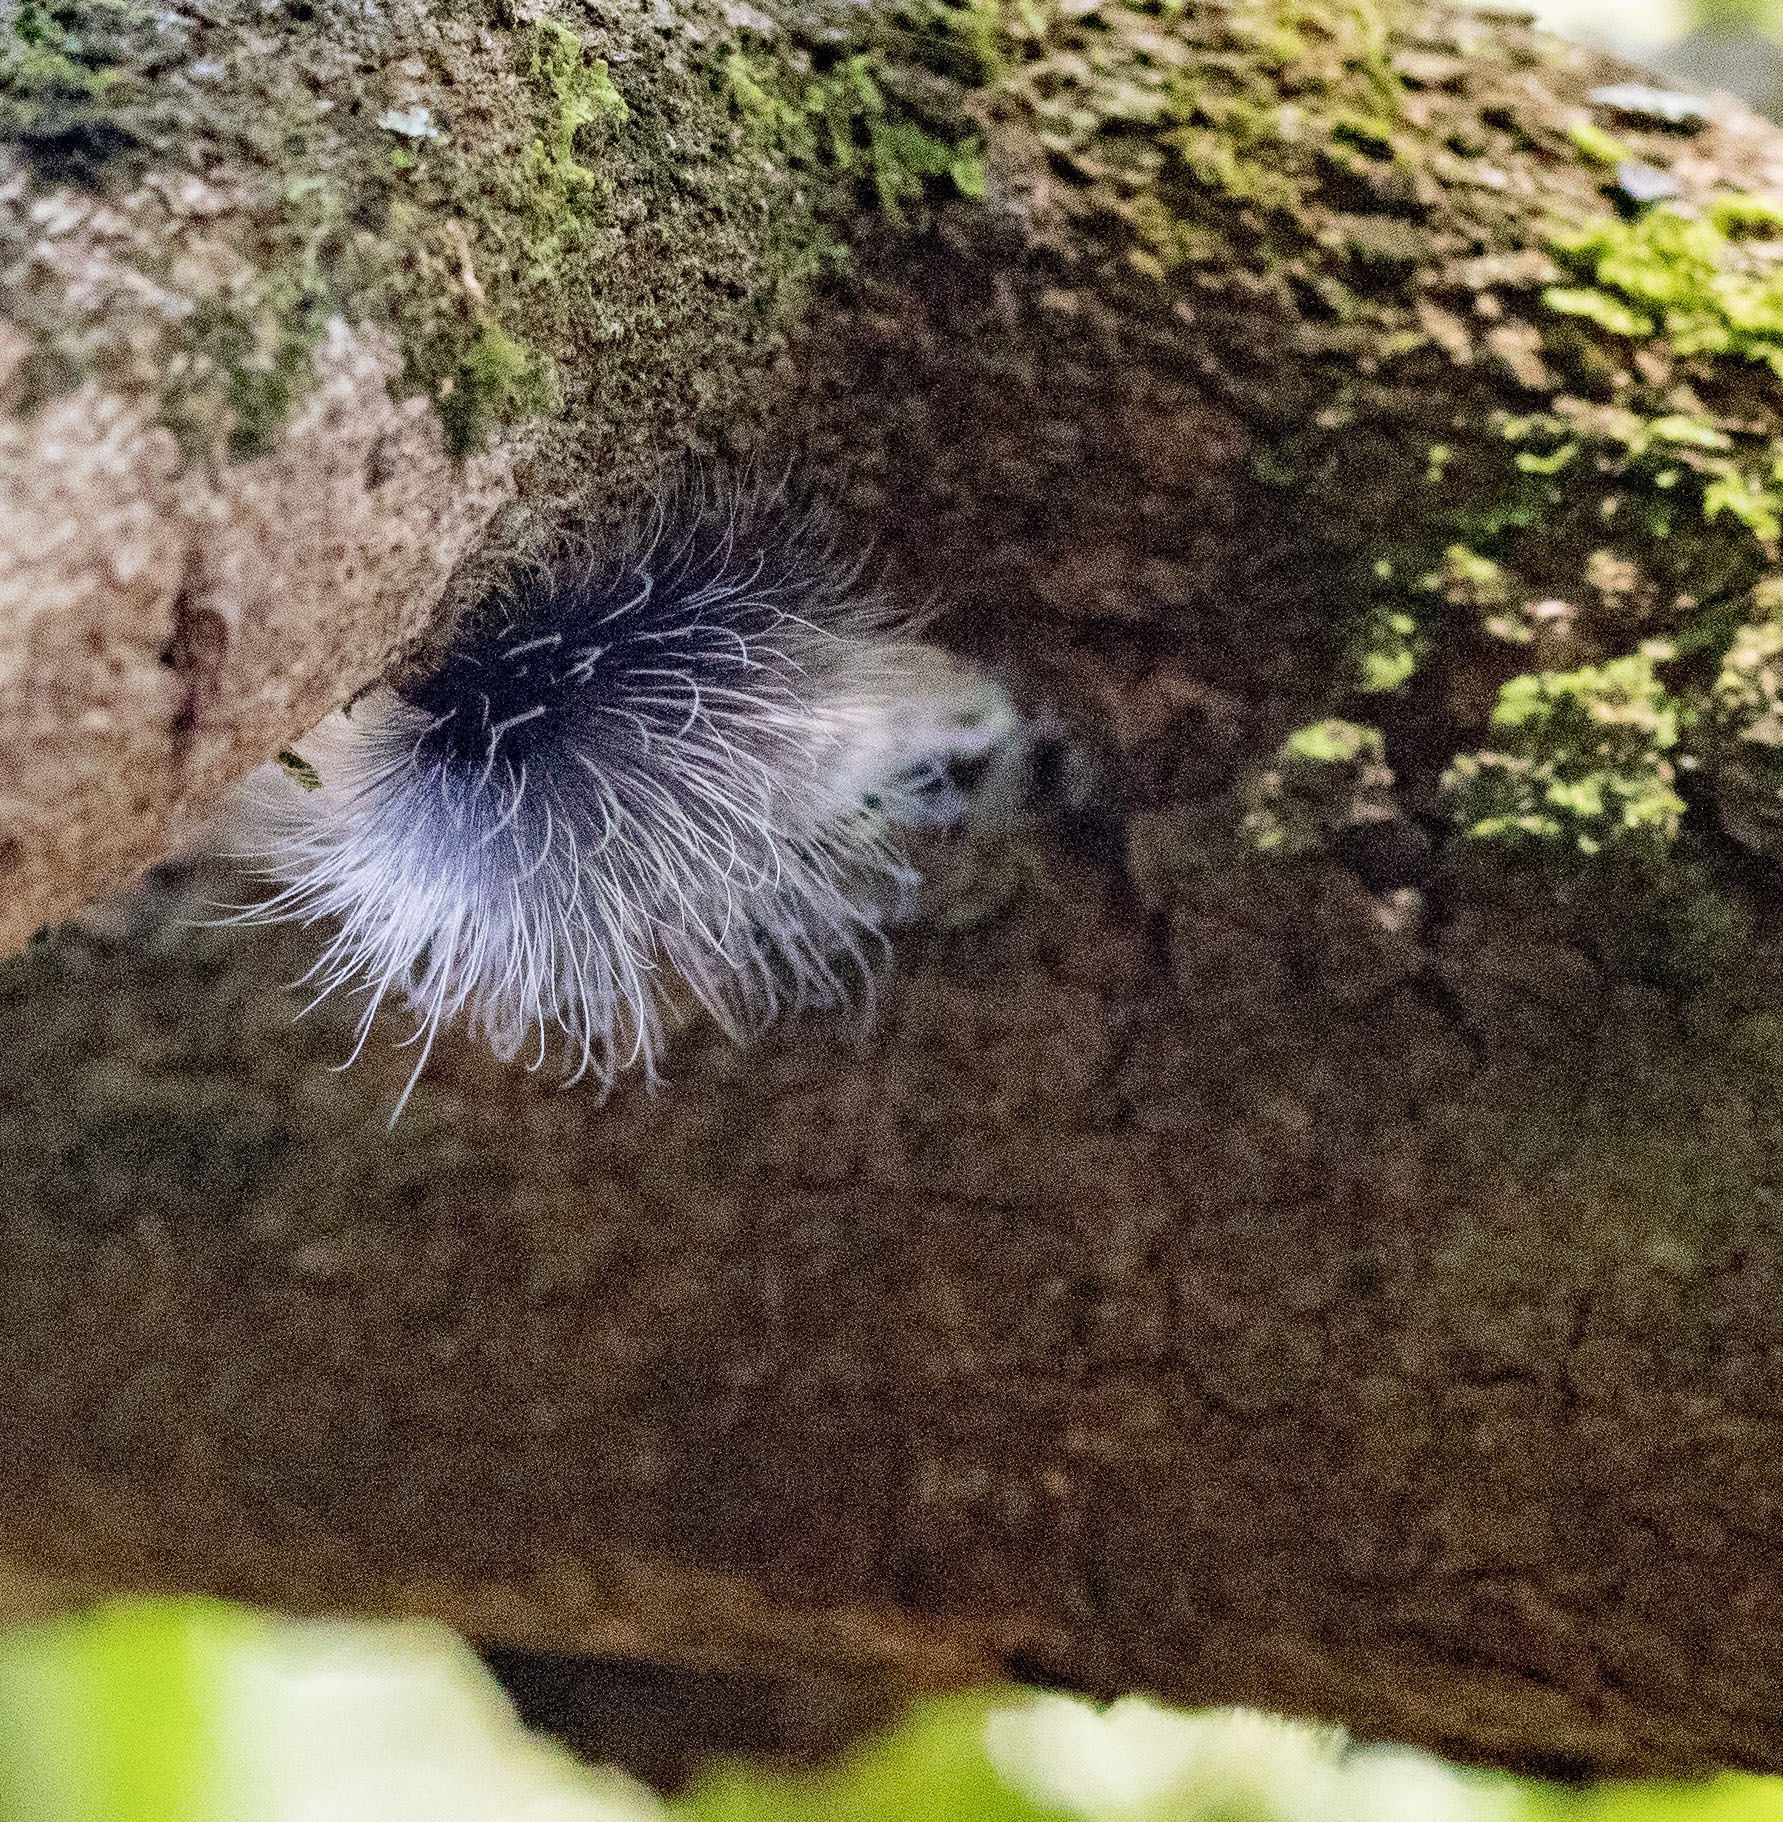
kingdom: Animalia
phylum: Arthropoda
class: Insecta
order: Lepidoptera
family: Erebidae
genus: Apistosia
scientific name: Apistosia judas
